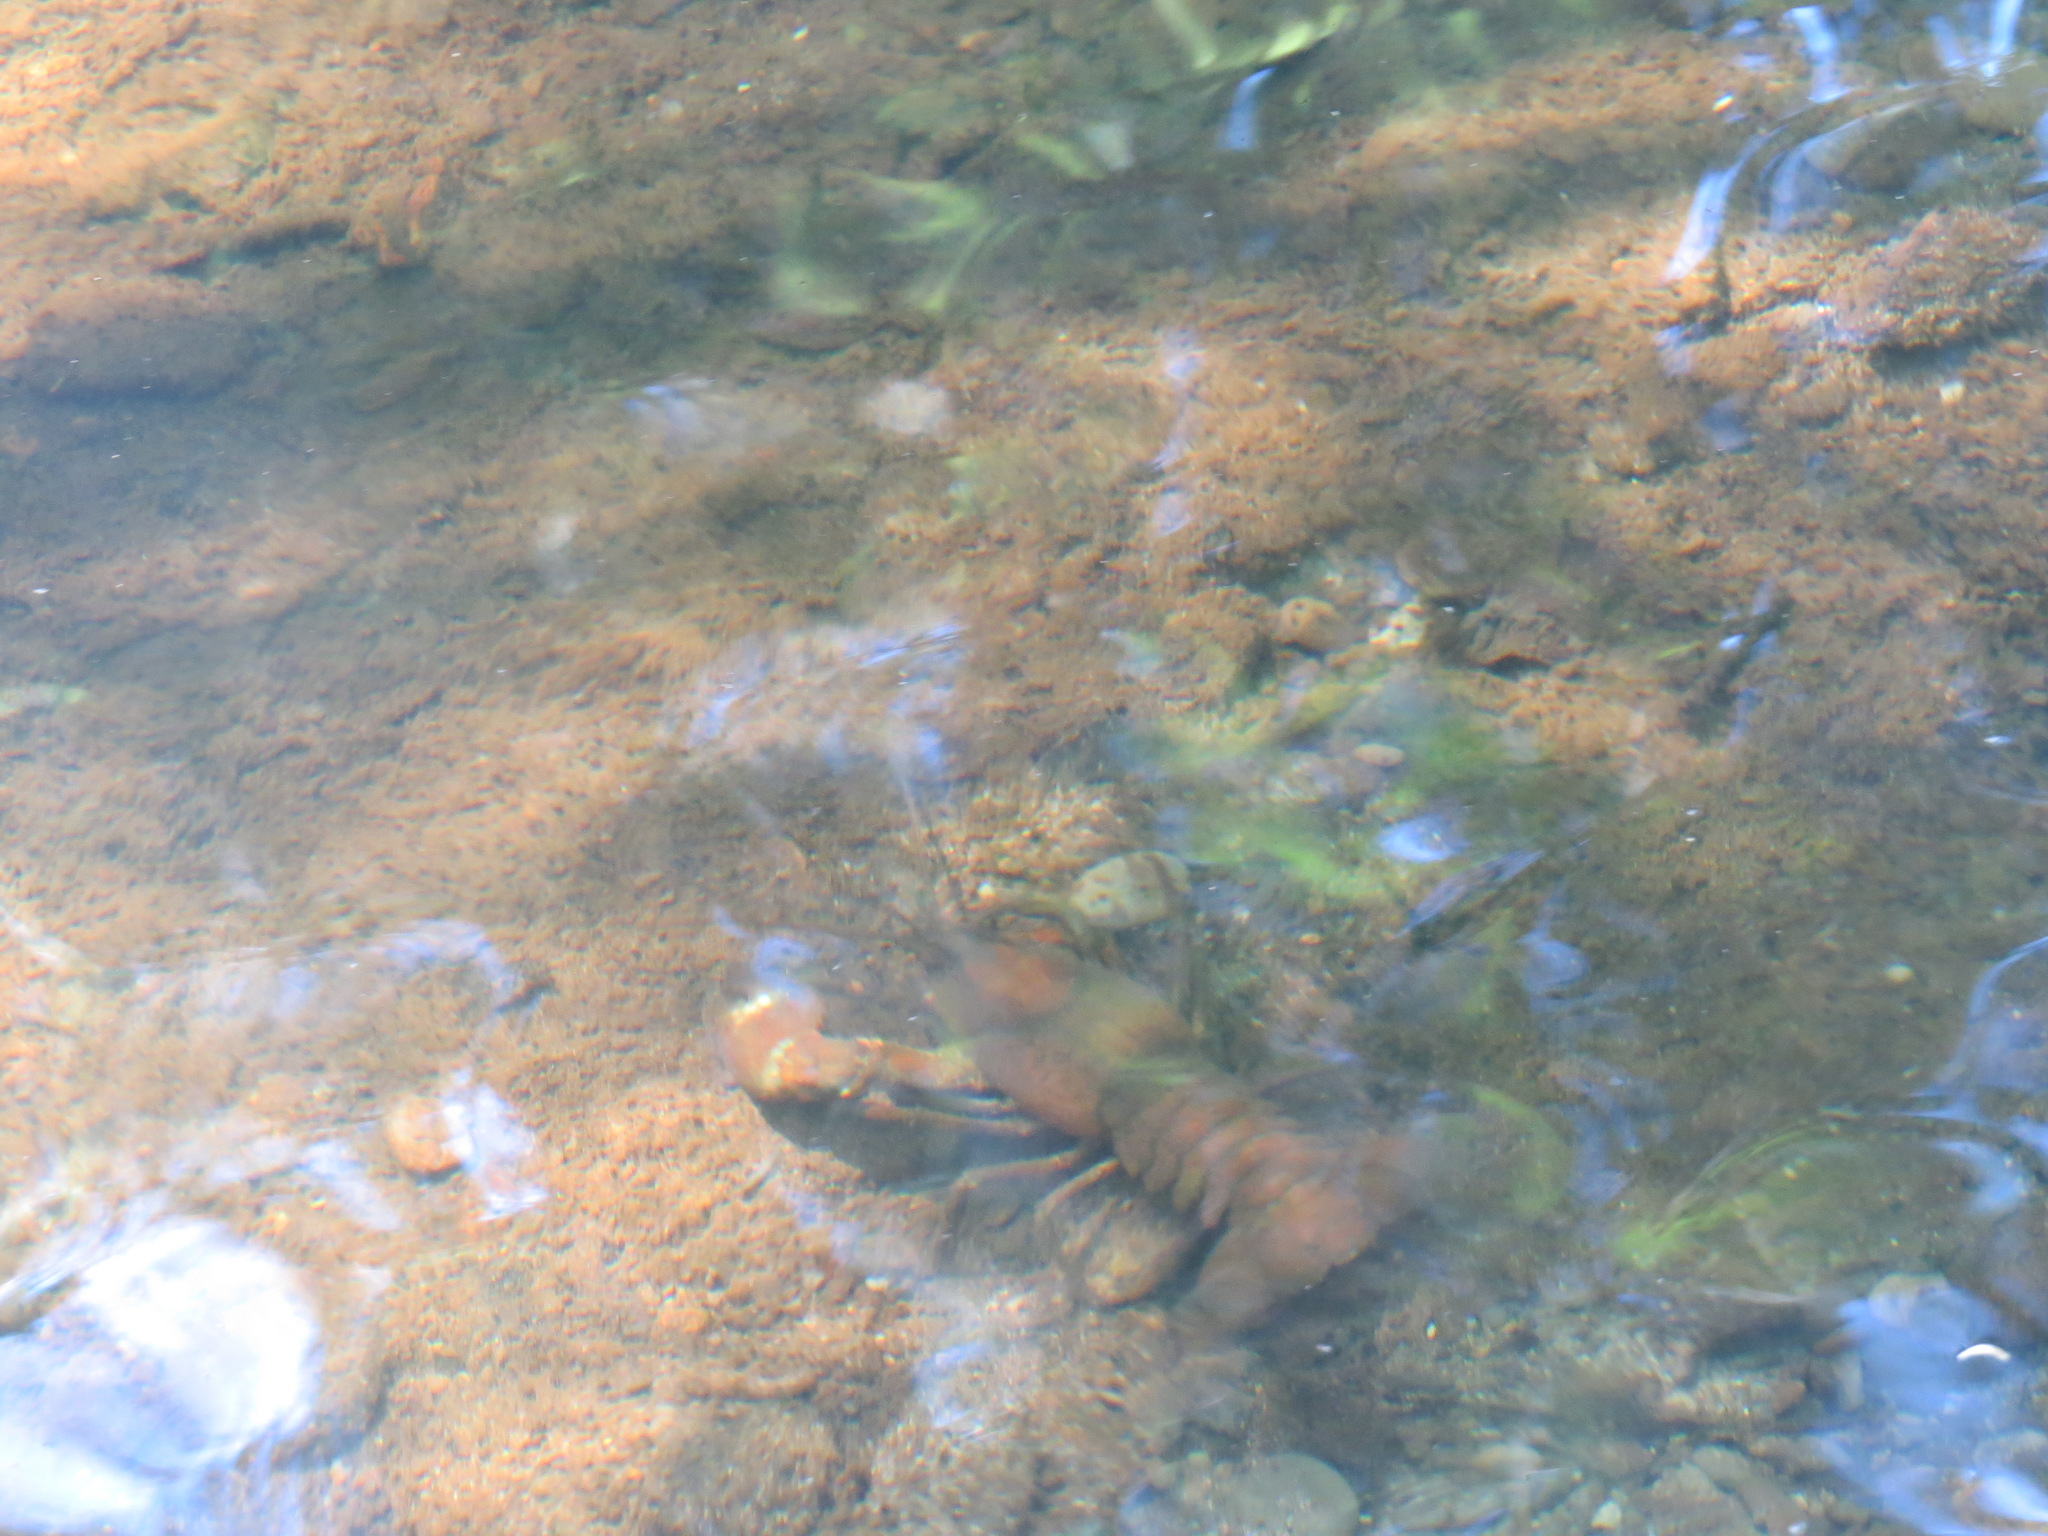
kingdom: Animalia
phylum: Arthropoda
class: Malacostraca
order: Decapoda
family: Astacidae
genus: Pacifastacus
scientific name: Pacifastacus leniusculus
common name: Signal crayfish
